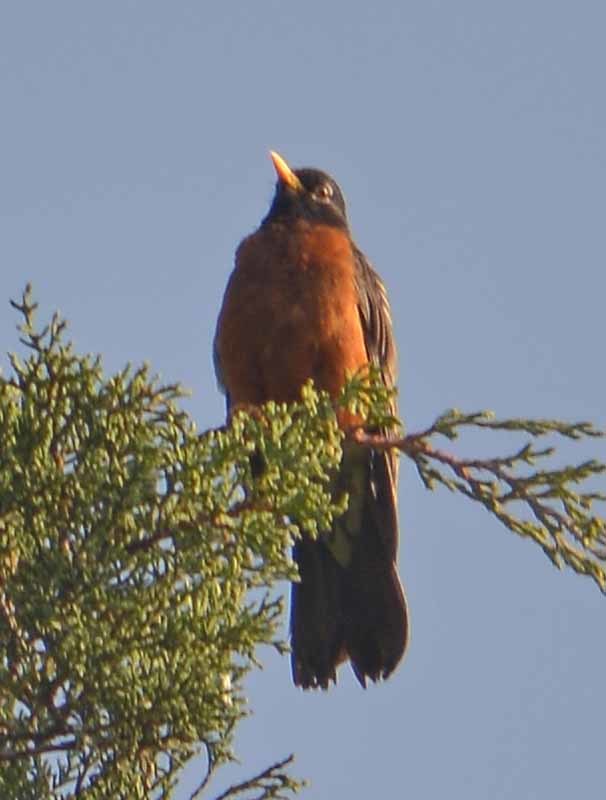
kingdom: Animalia
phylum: Chordata
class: Aves
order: Passeriformes
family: Turdidae
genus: Turdus
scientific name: Turdus migratorius
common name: American robin
